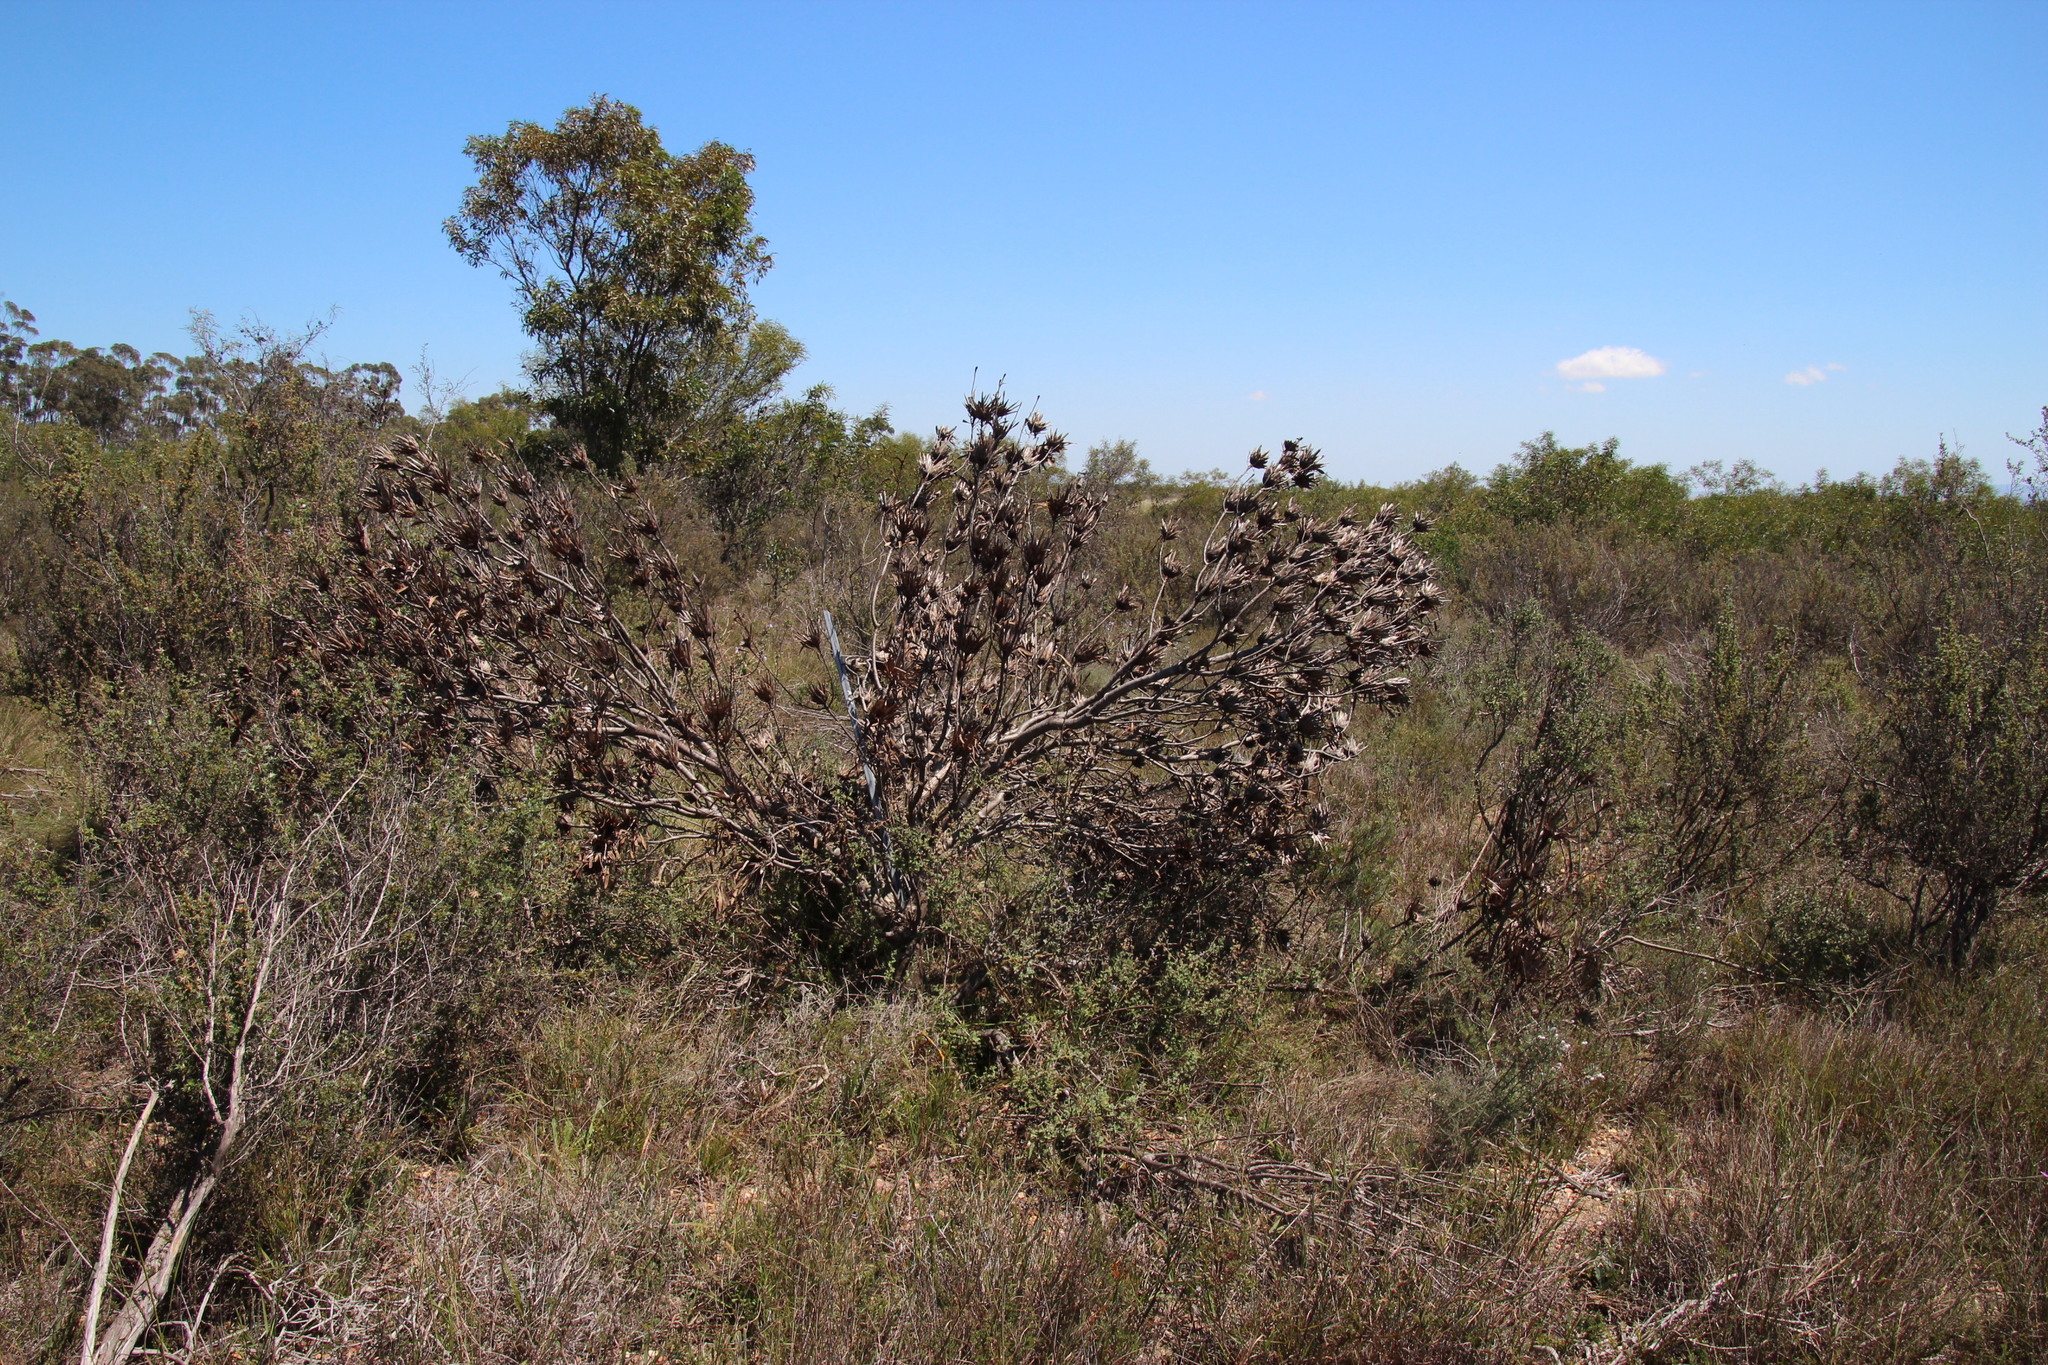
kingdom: Plantae
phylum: Tracheophyta
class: Magnoliopsida
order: Proteales
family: Proteaceae
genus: Protea
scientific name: Protea repens
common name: Sugarbush
